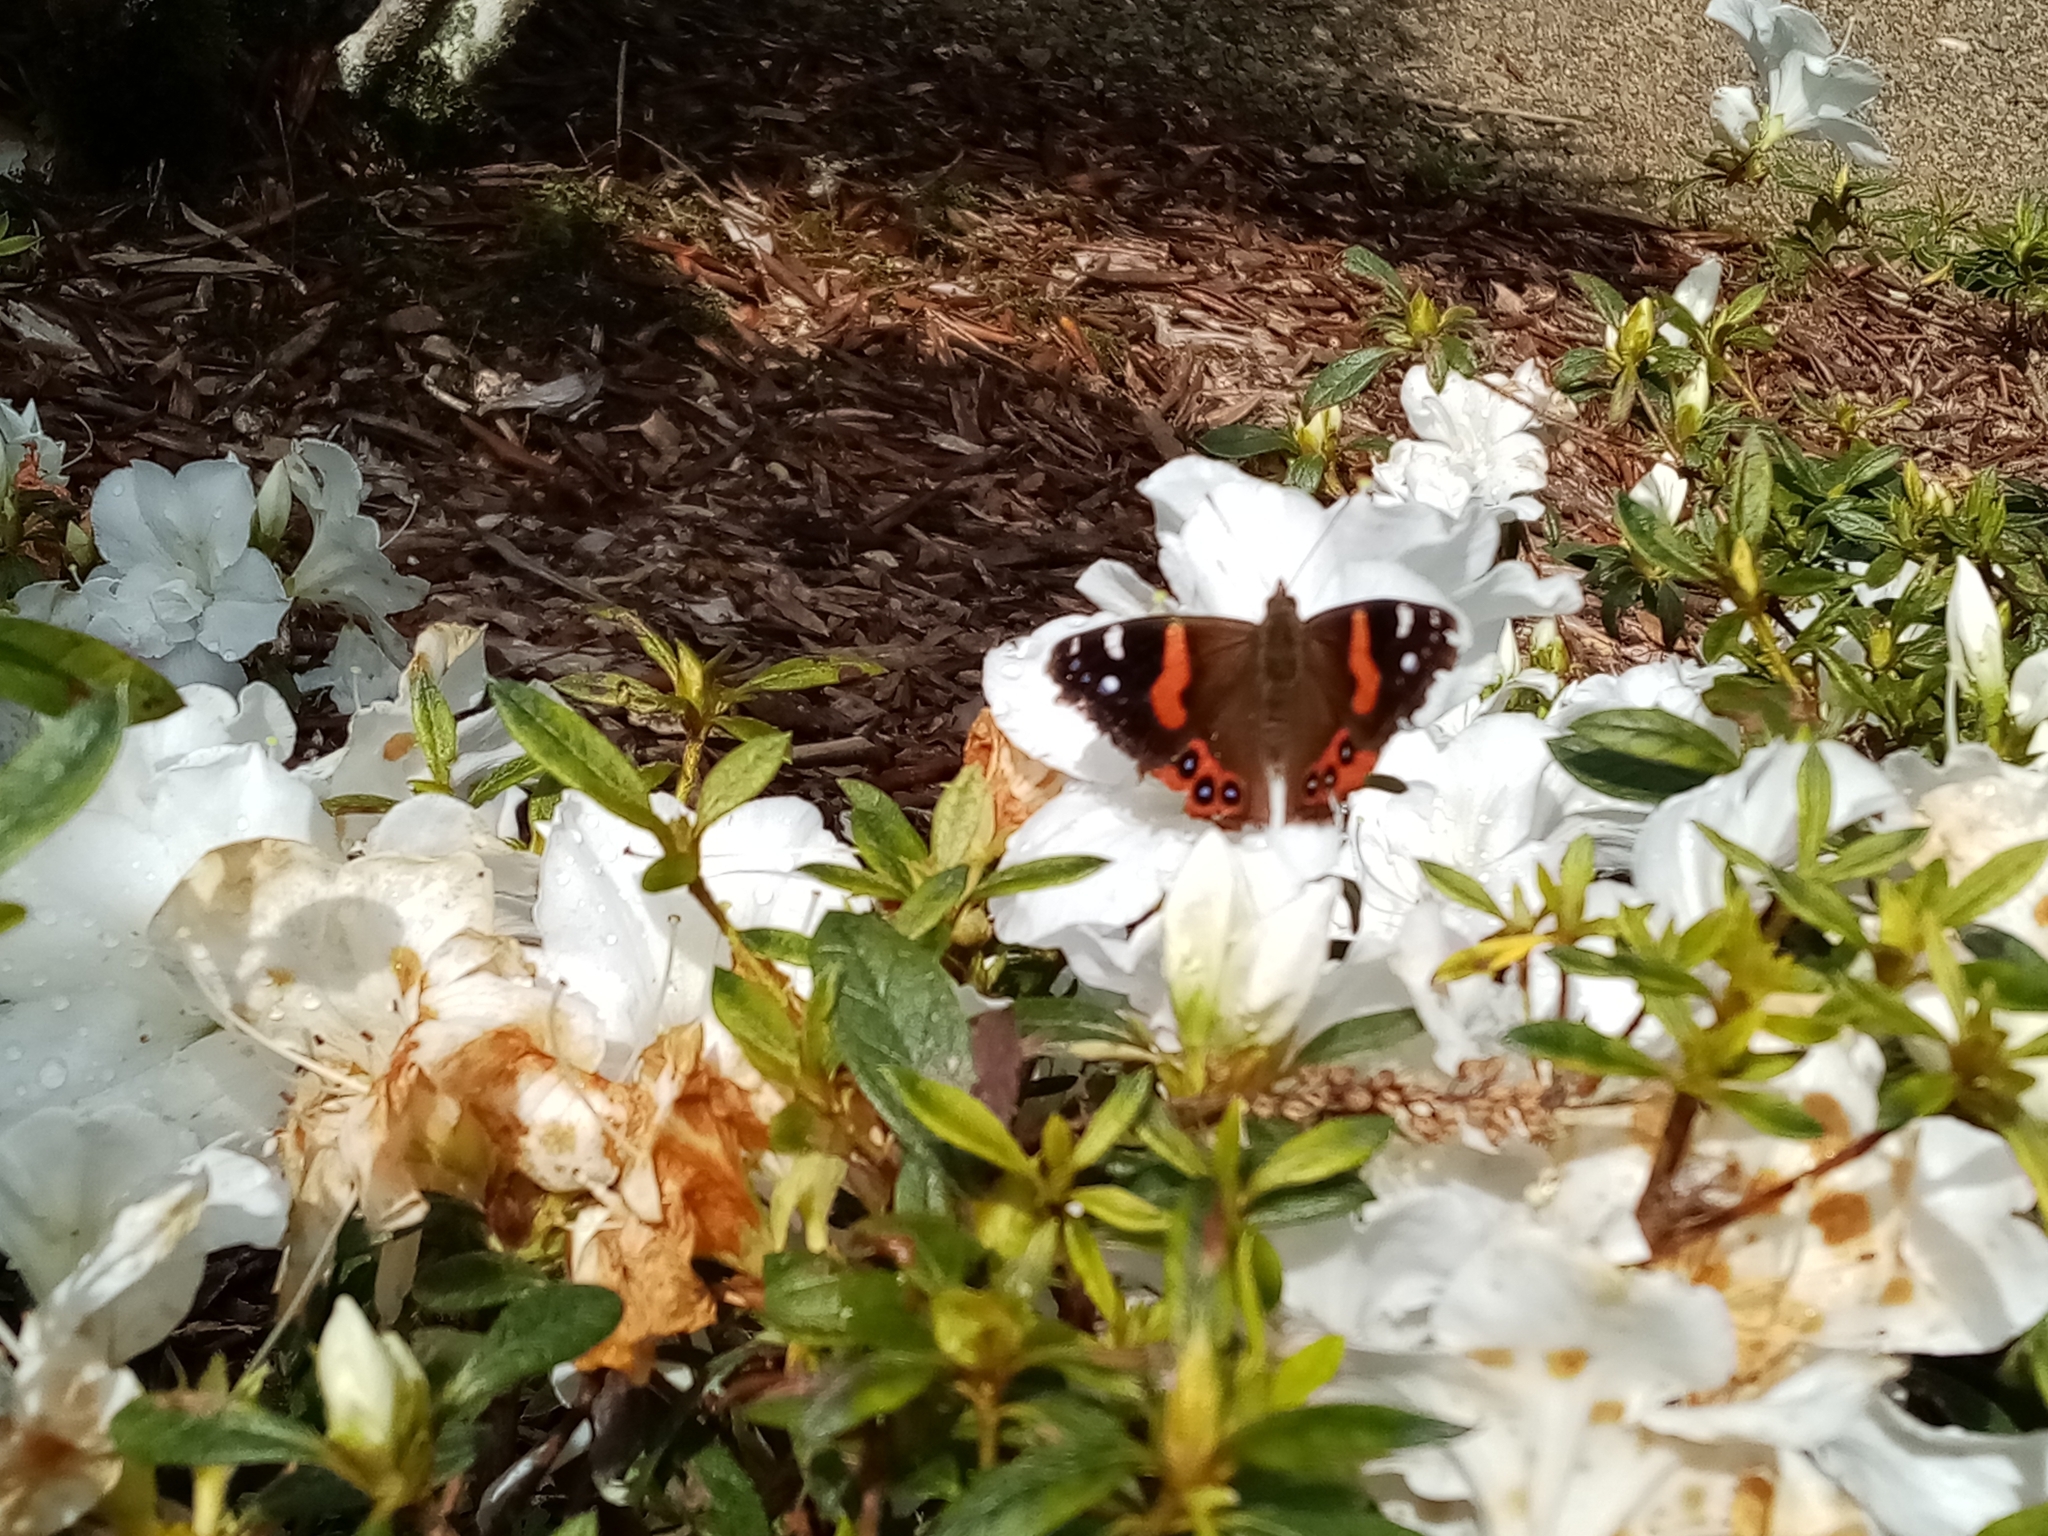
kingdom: Animalia
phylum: Arthropoda
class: Insecta
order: Lepidoptera
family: Nymphalidae
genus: Vanessa
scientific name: Vanessa gonerilla
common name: New zealand red admiral
